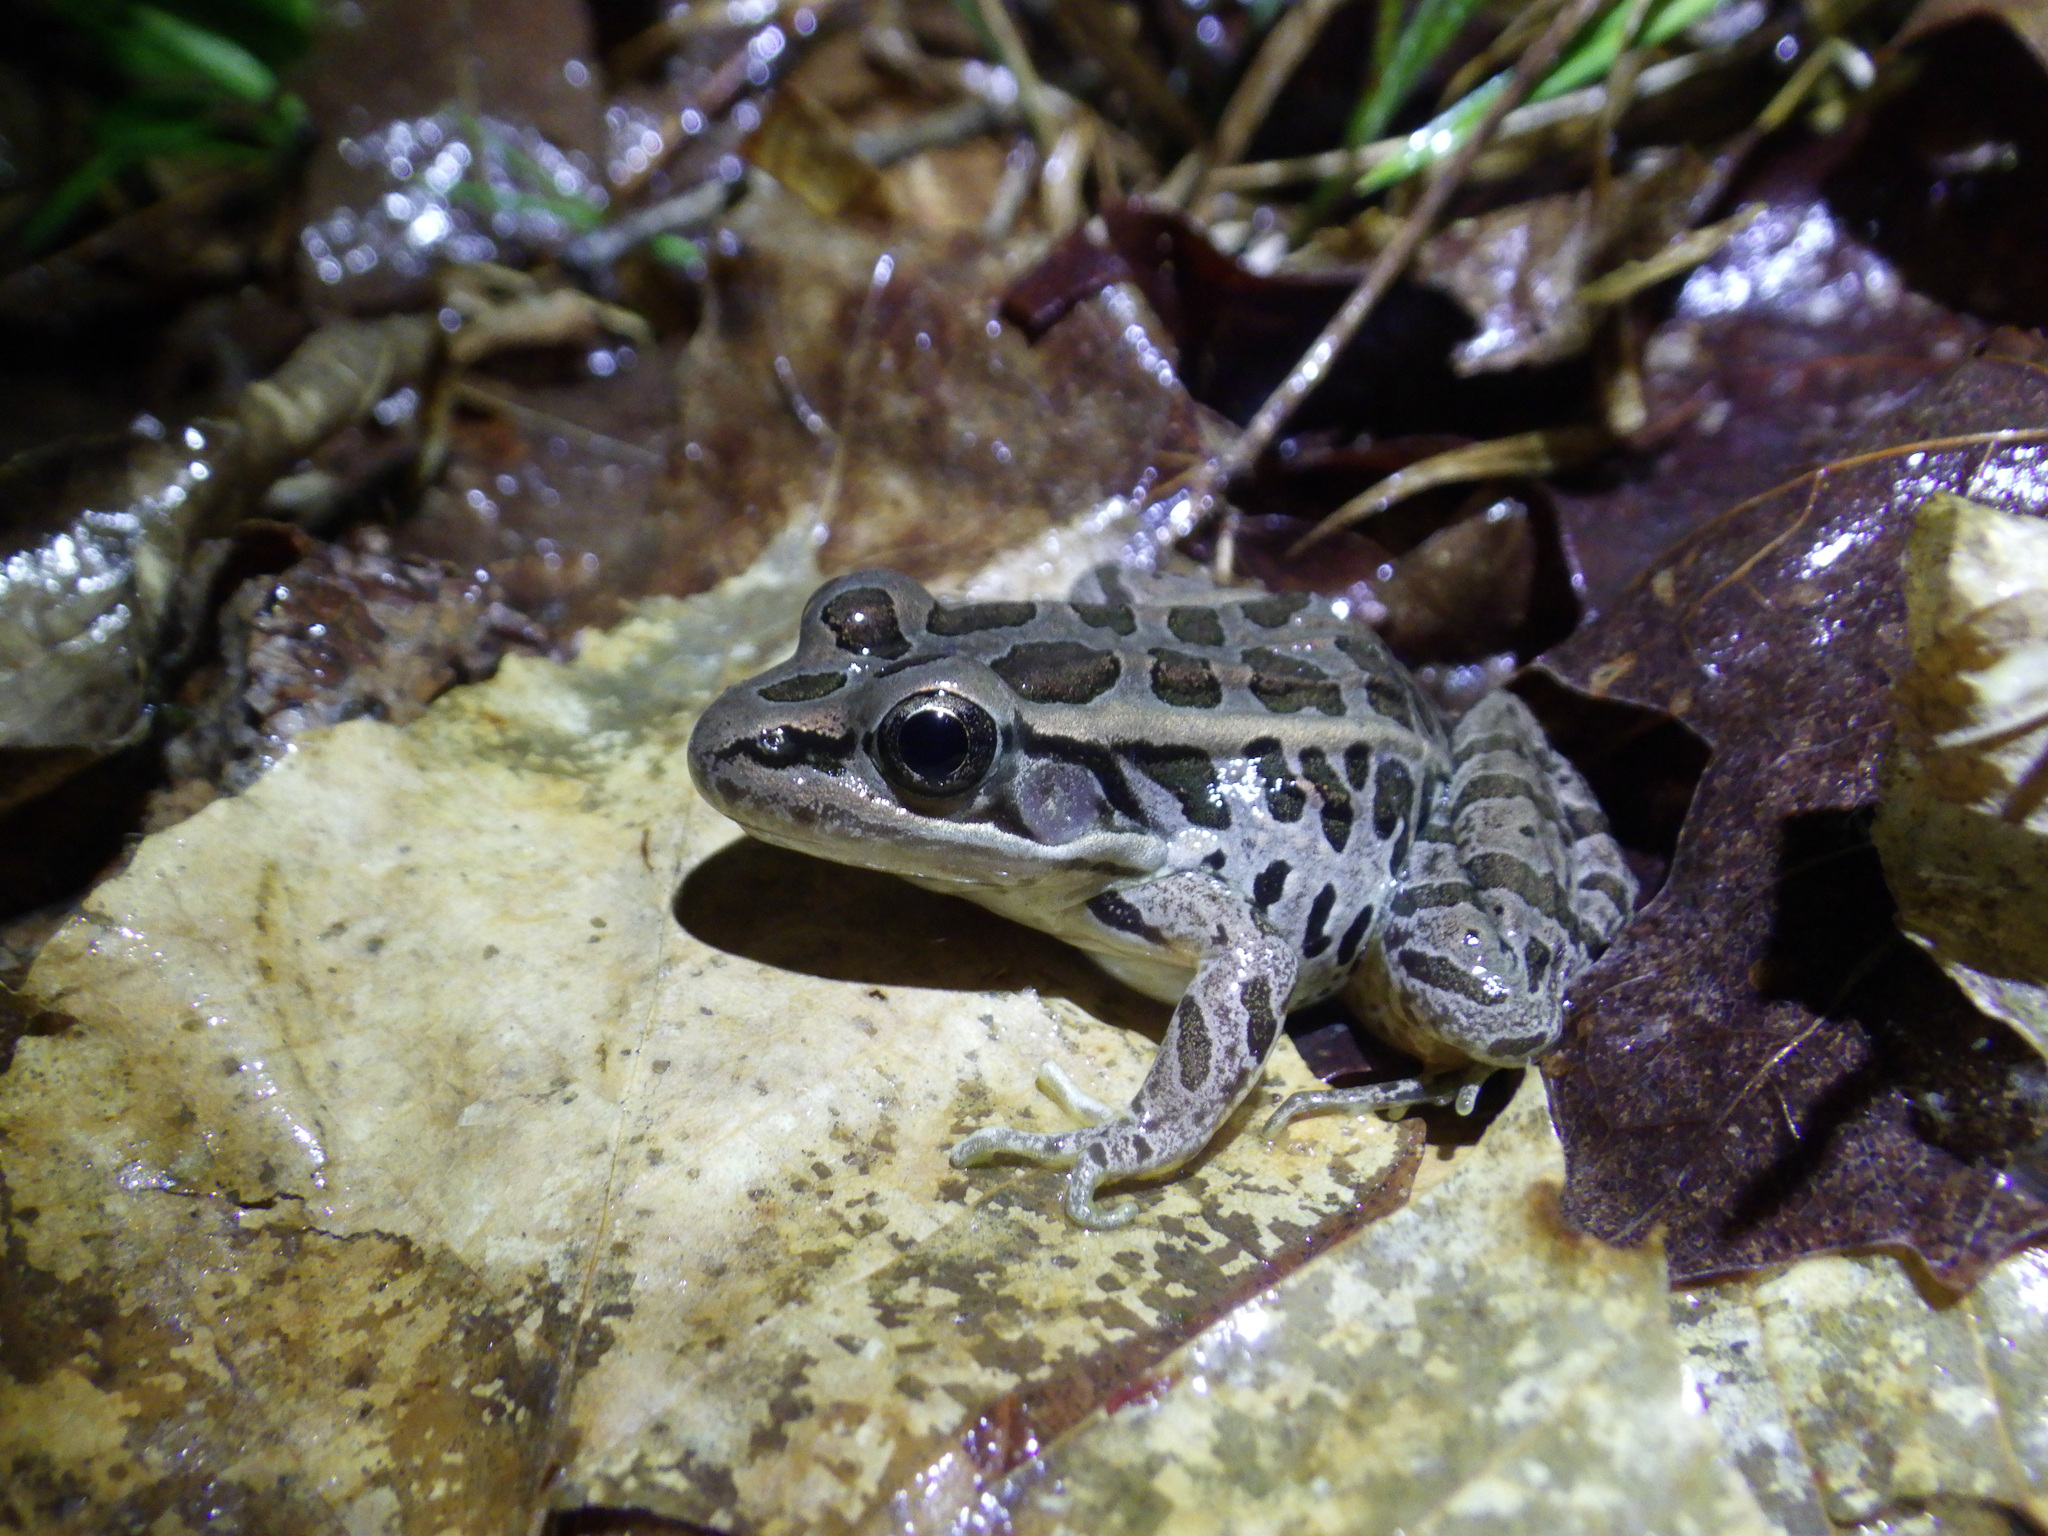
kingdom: Animalia
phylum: Chordata
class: Amphibia
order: Anura
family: Ranidae
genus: Lithobates
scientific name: Lithobates palustris
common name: Pickerel frog
